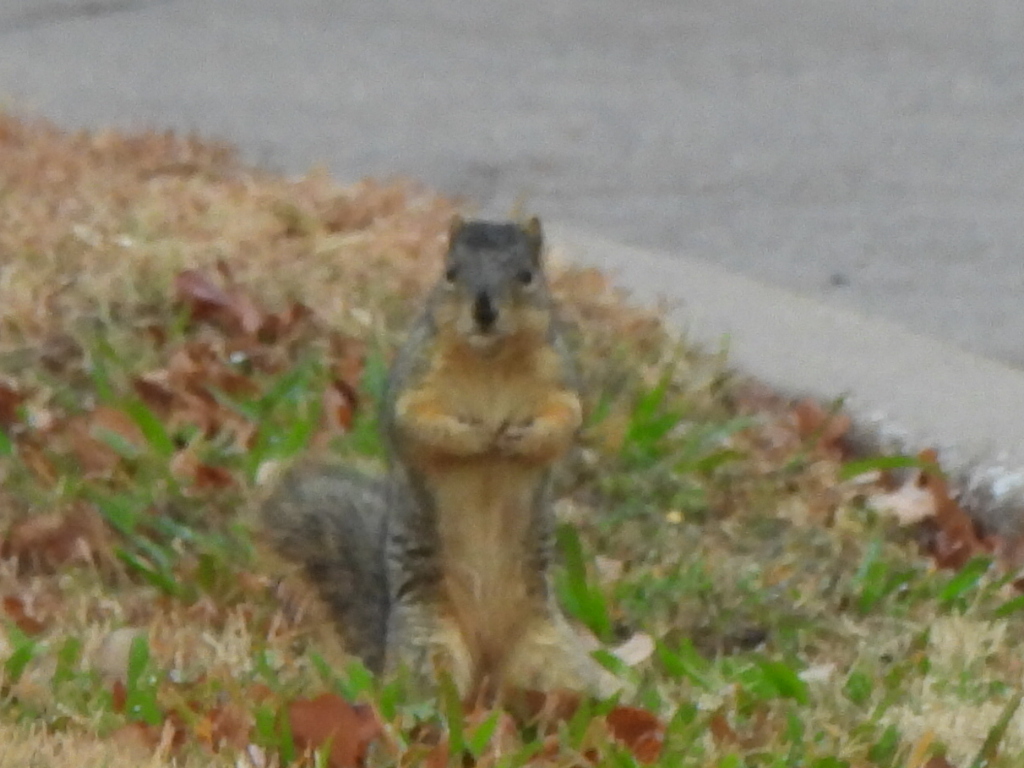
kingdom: Animalia
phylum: Chordata
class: Mammalia
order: Rodentia
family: Sciuridae
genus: Sciurus
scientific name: Sciurus niger
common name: Fox squirrel
